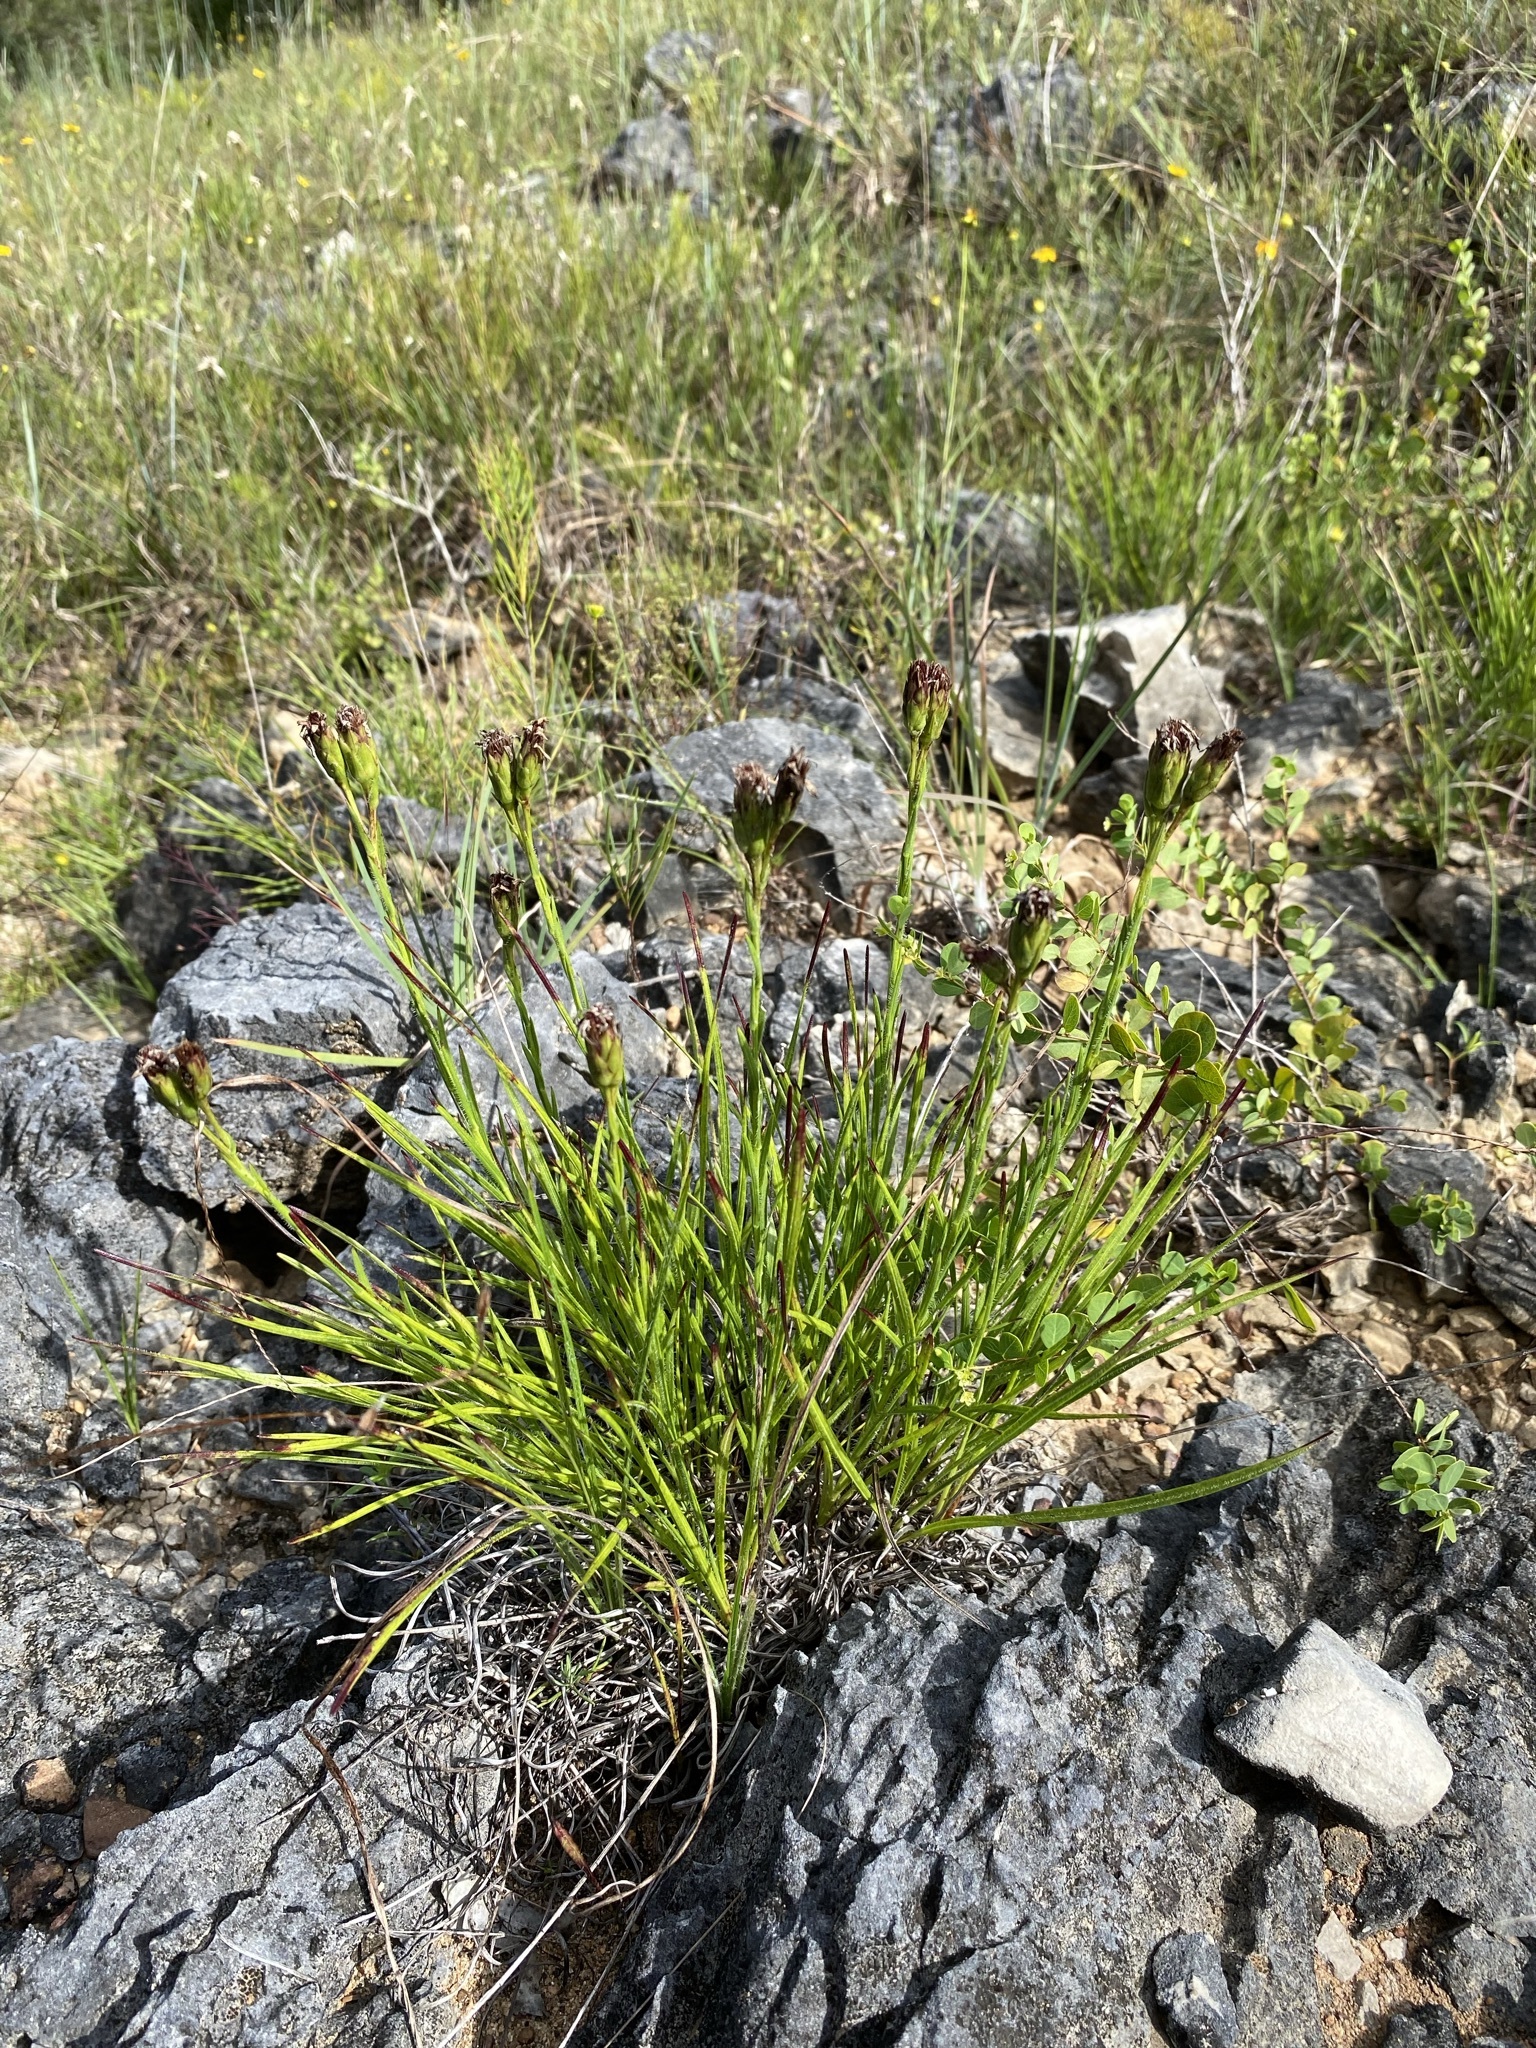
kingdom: Plantae
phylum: Tracheophyta
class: Magnoliopsida
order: Asterales
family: Asteraceae
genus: Liatris
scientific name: Liatris oligocephala
